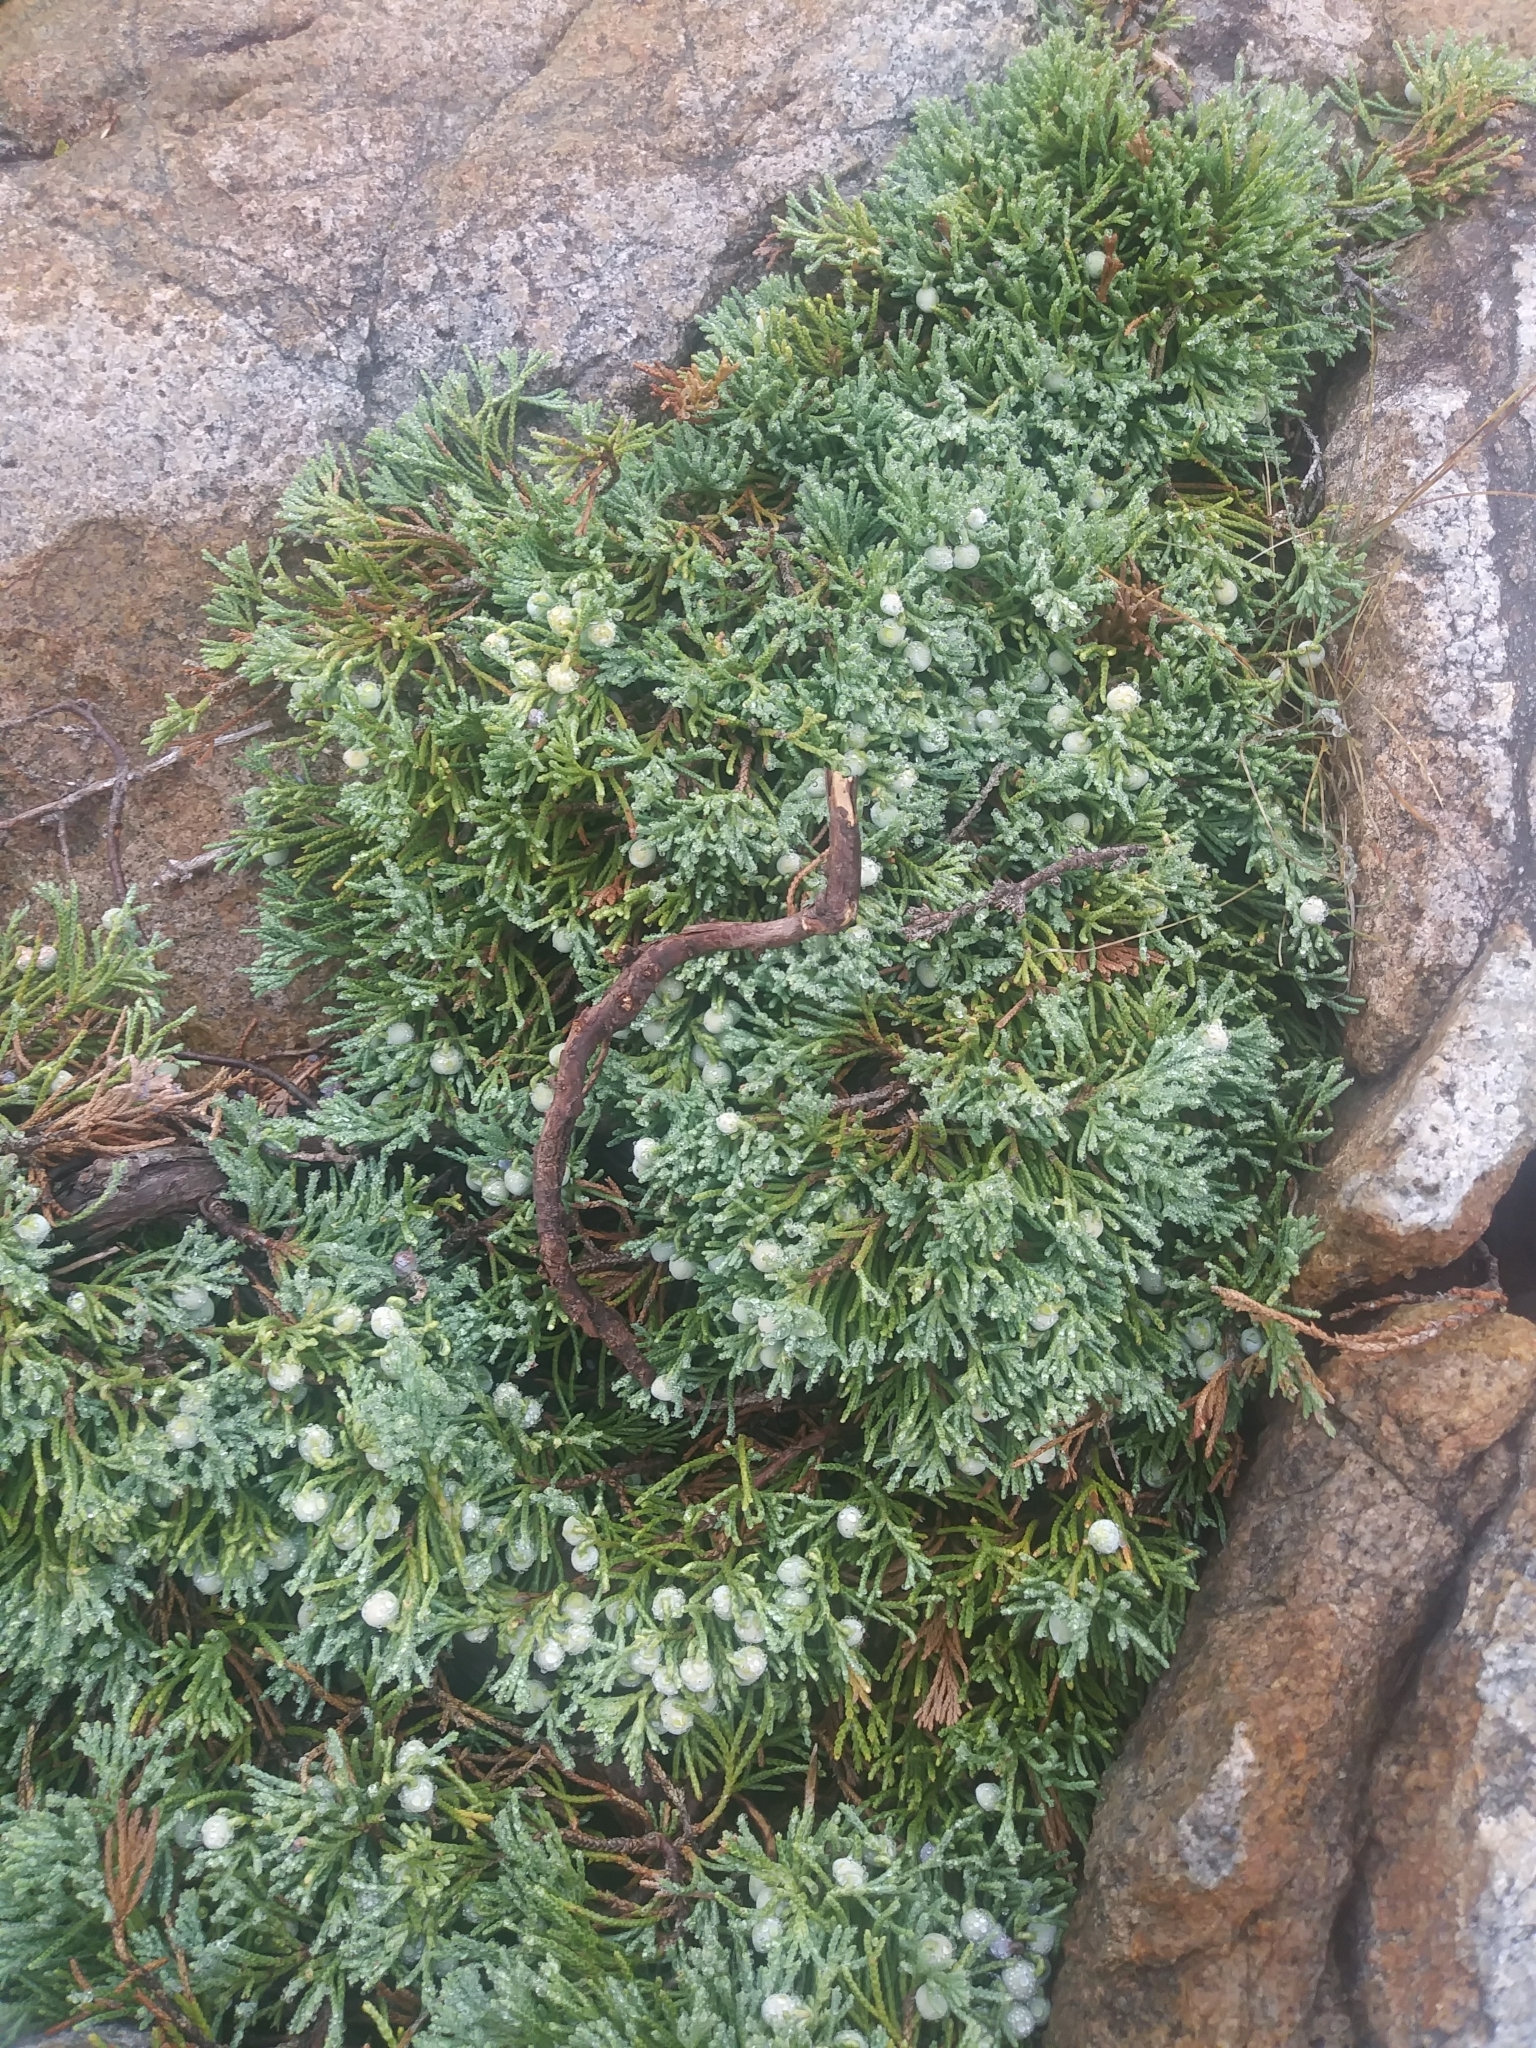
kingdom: Plantae
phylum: Tracheophyta
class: Pinopsida
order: Pinales
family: Cupressaceae
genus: Juniperus
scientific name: Juniperus horizontalis
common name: Creeping juniper
